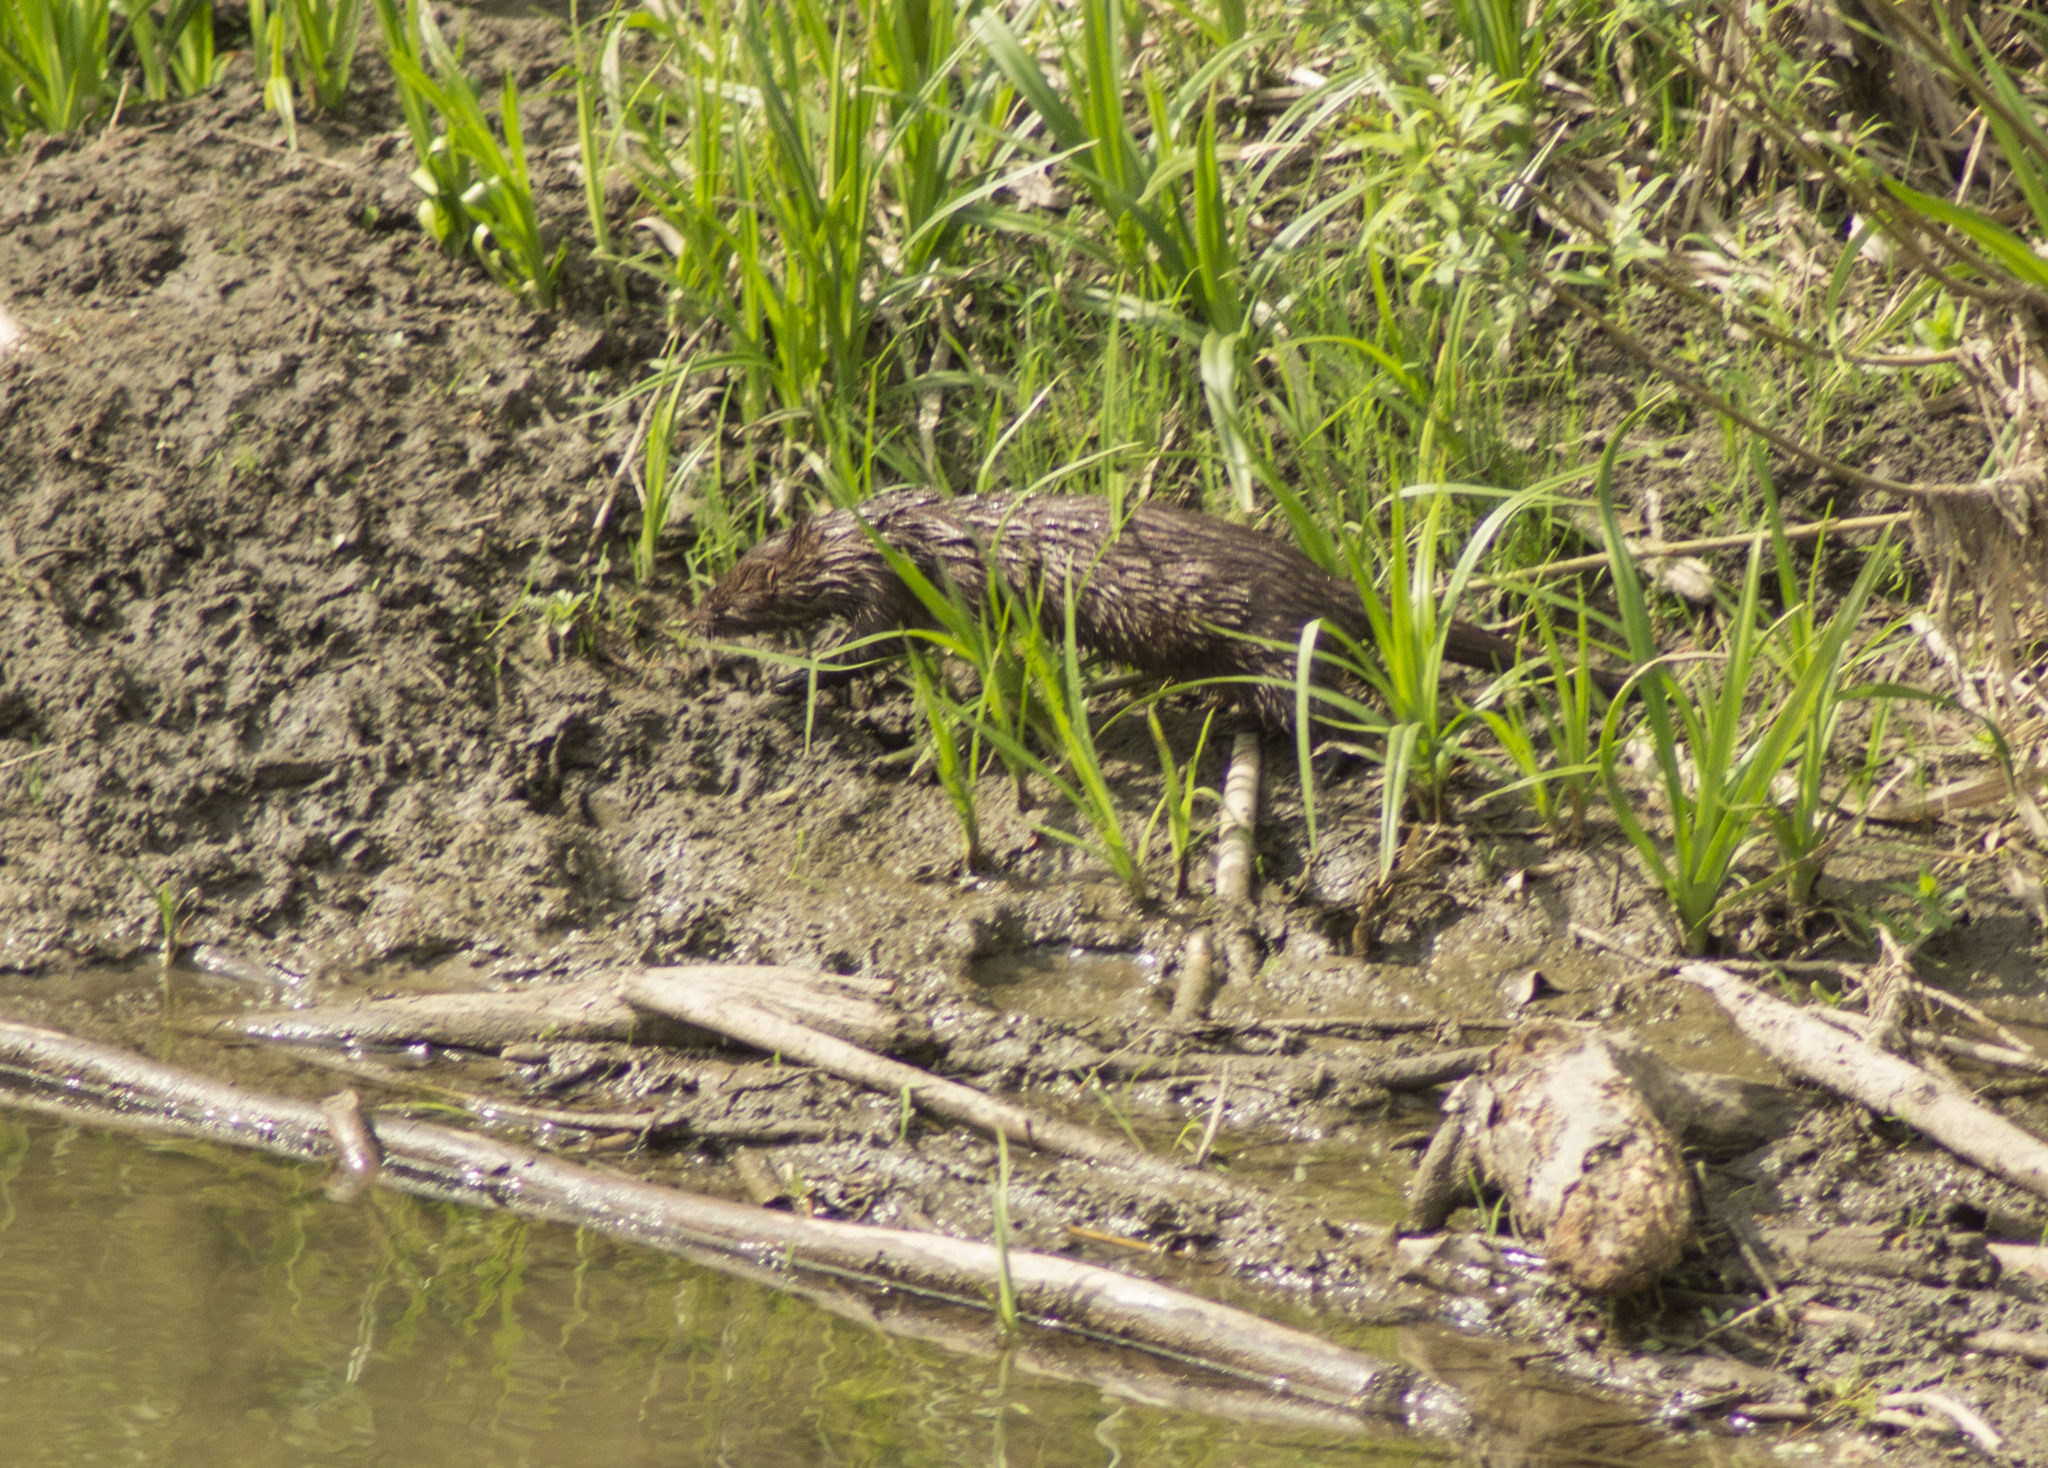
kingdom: Animalia
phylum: Chordata
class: Mammalia
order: Carnivora
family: Mustelidae
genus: Mustela
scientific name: Mustela
